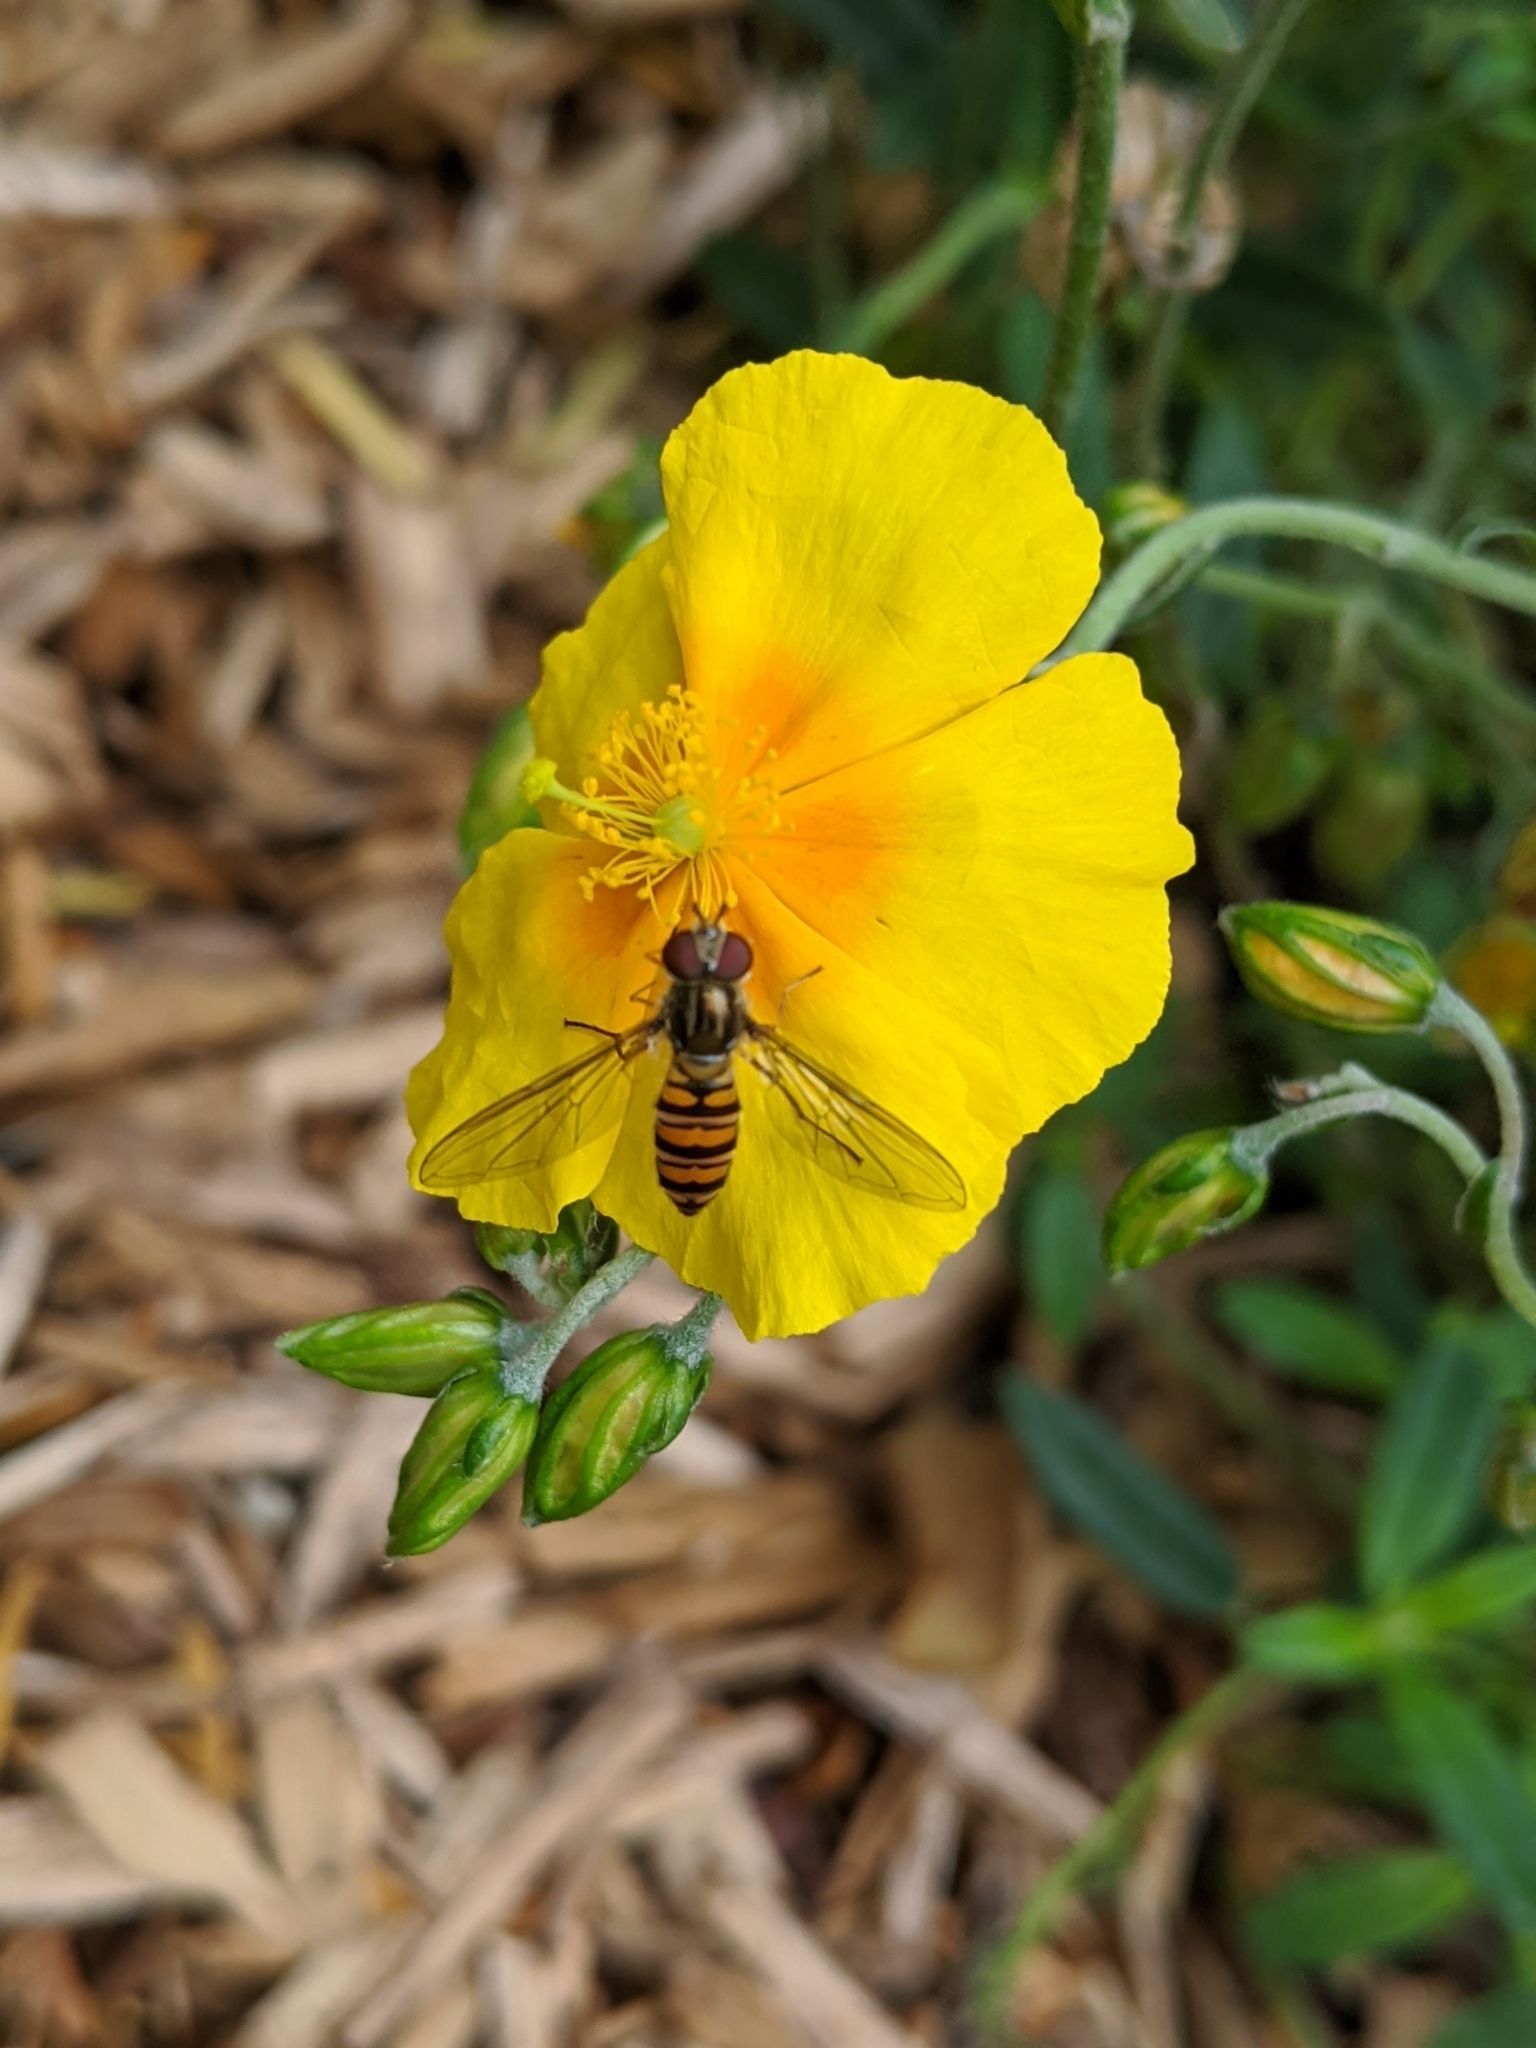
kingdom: Animalia
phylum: Arthropoda
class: Insecta
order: Diptera
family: Syrphidae
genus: Episyrphus
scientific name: Episyrphus balteatus
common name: Marmalade hoverfly
